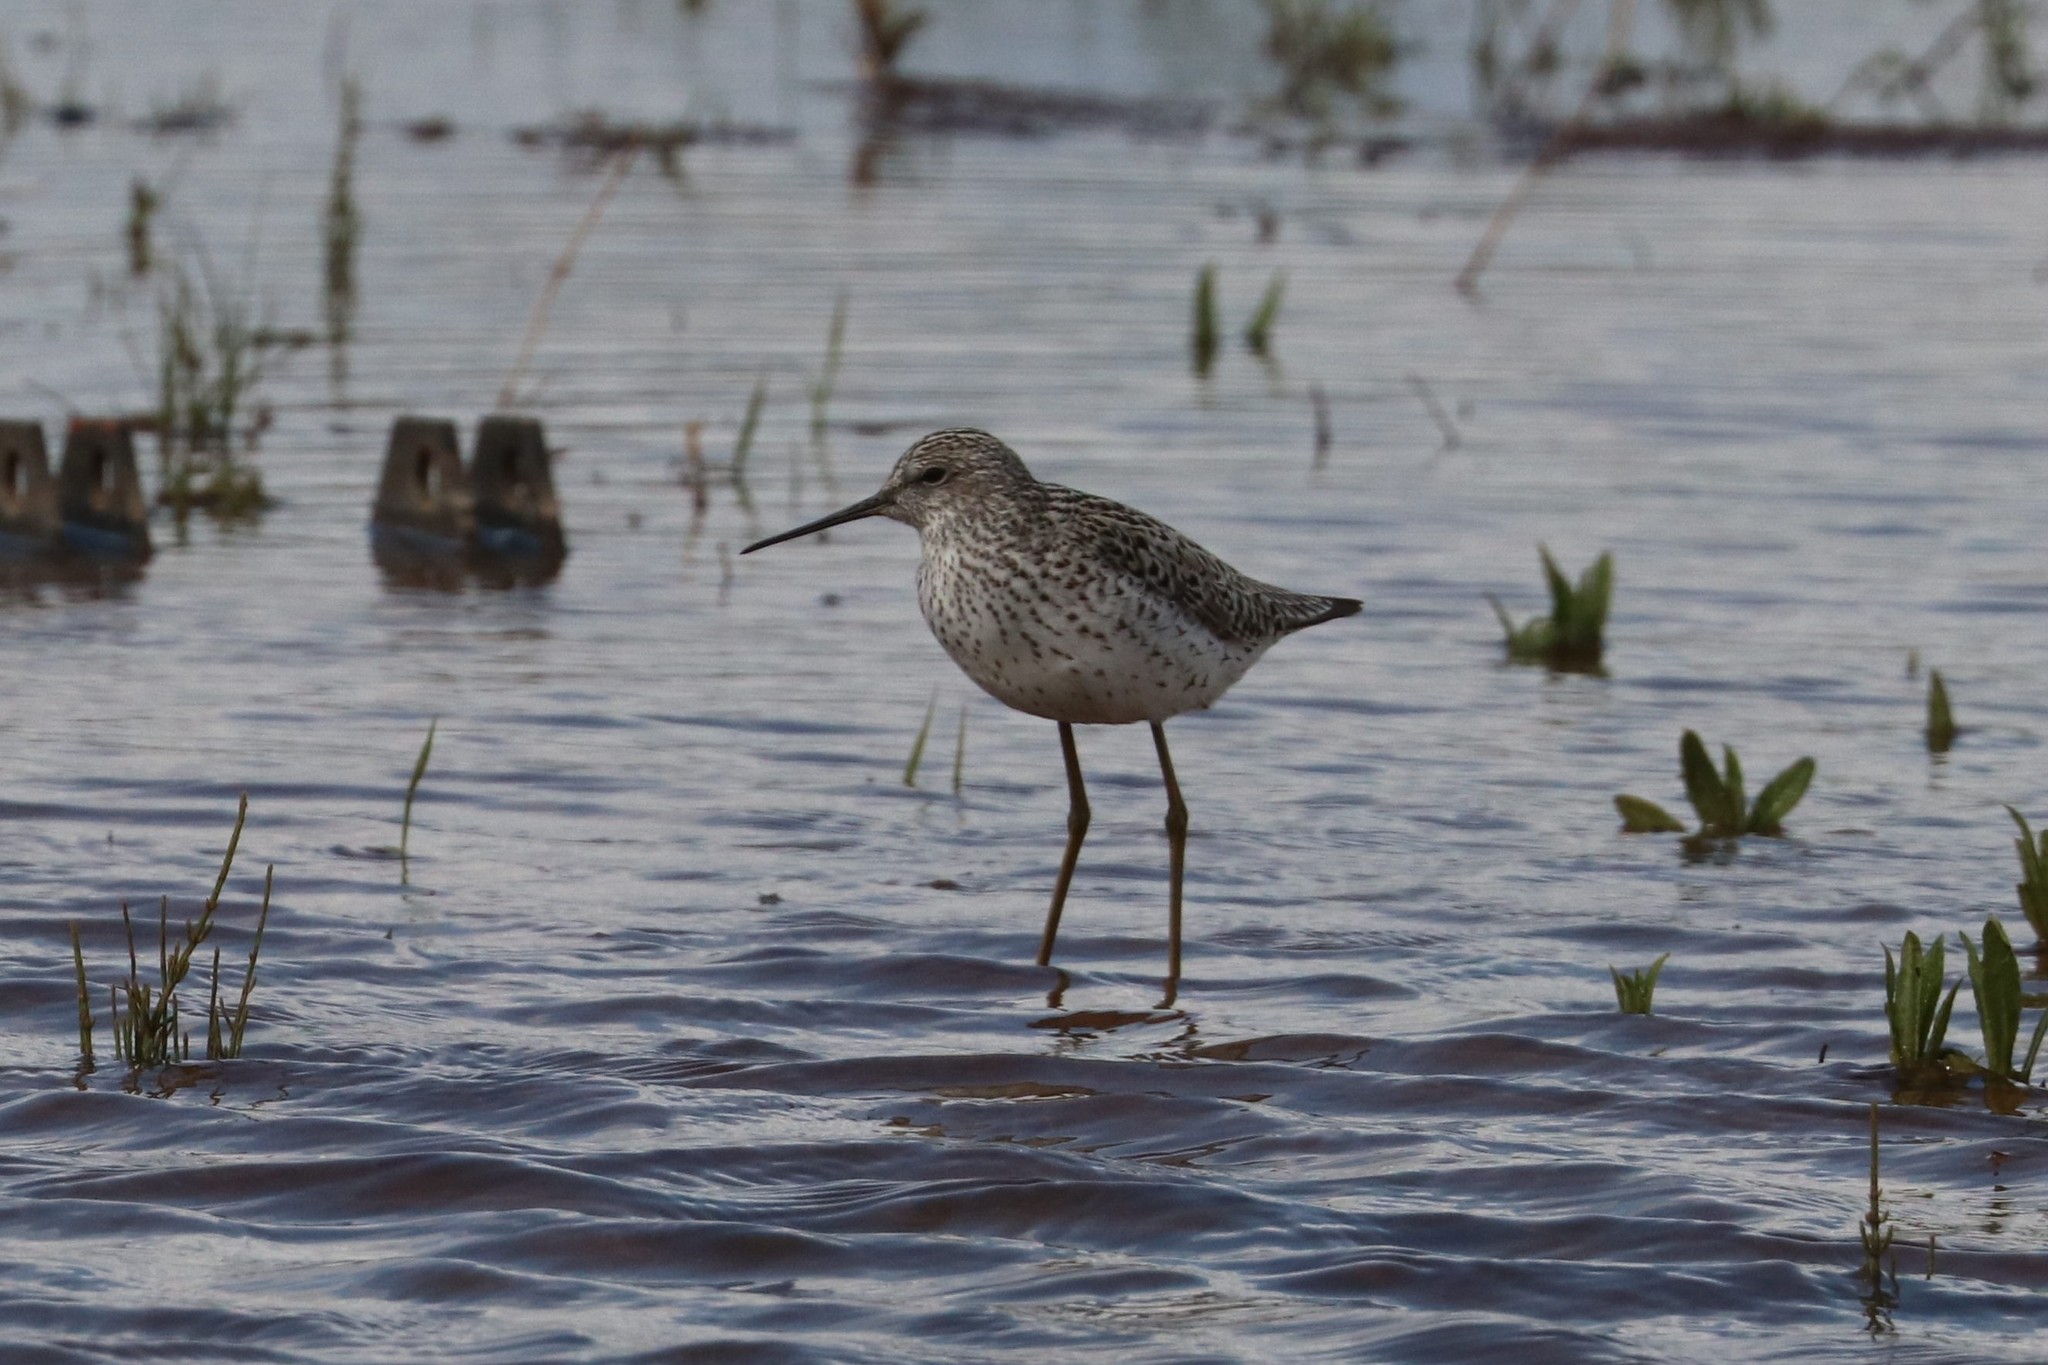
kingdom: Animalia
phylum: Chordata
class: Aves
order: Charadriiformes
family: Scolopacidae
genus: Tringa
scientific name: Tringa stagnatilis
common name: Marsh sandpiper
